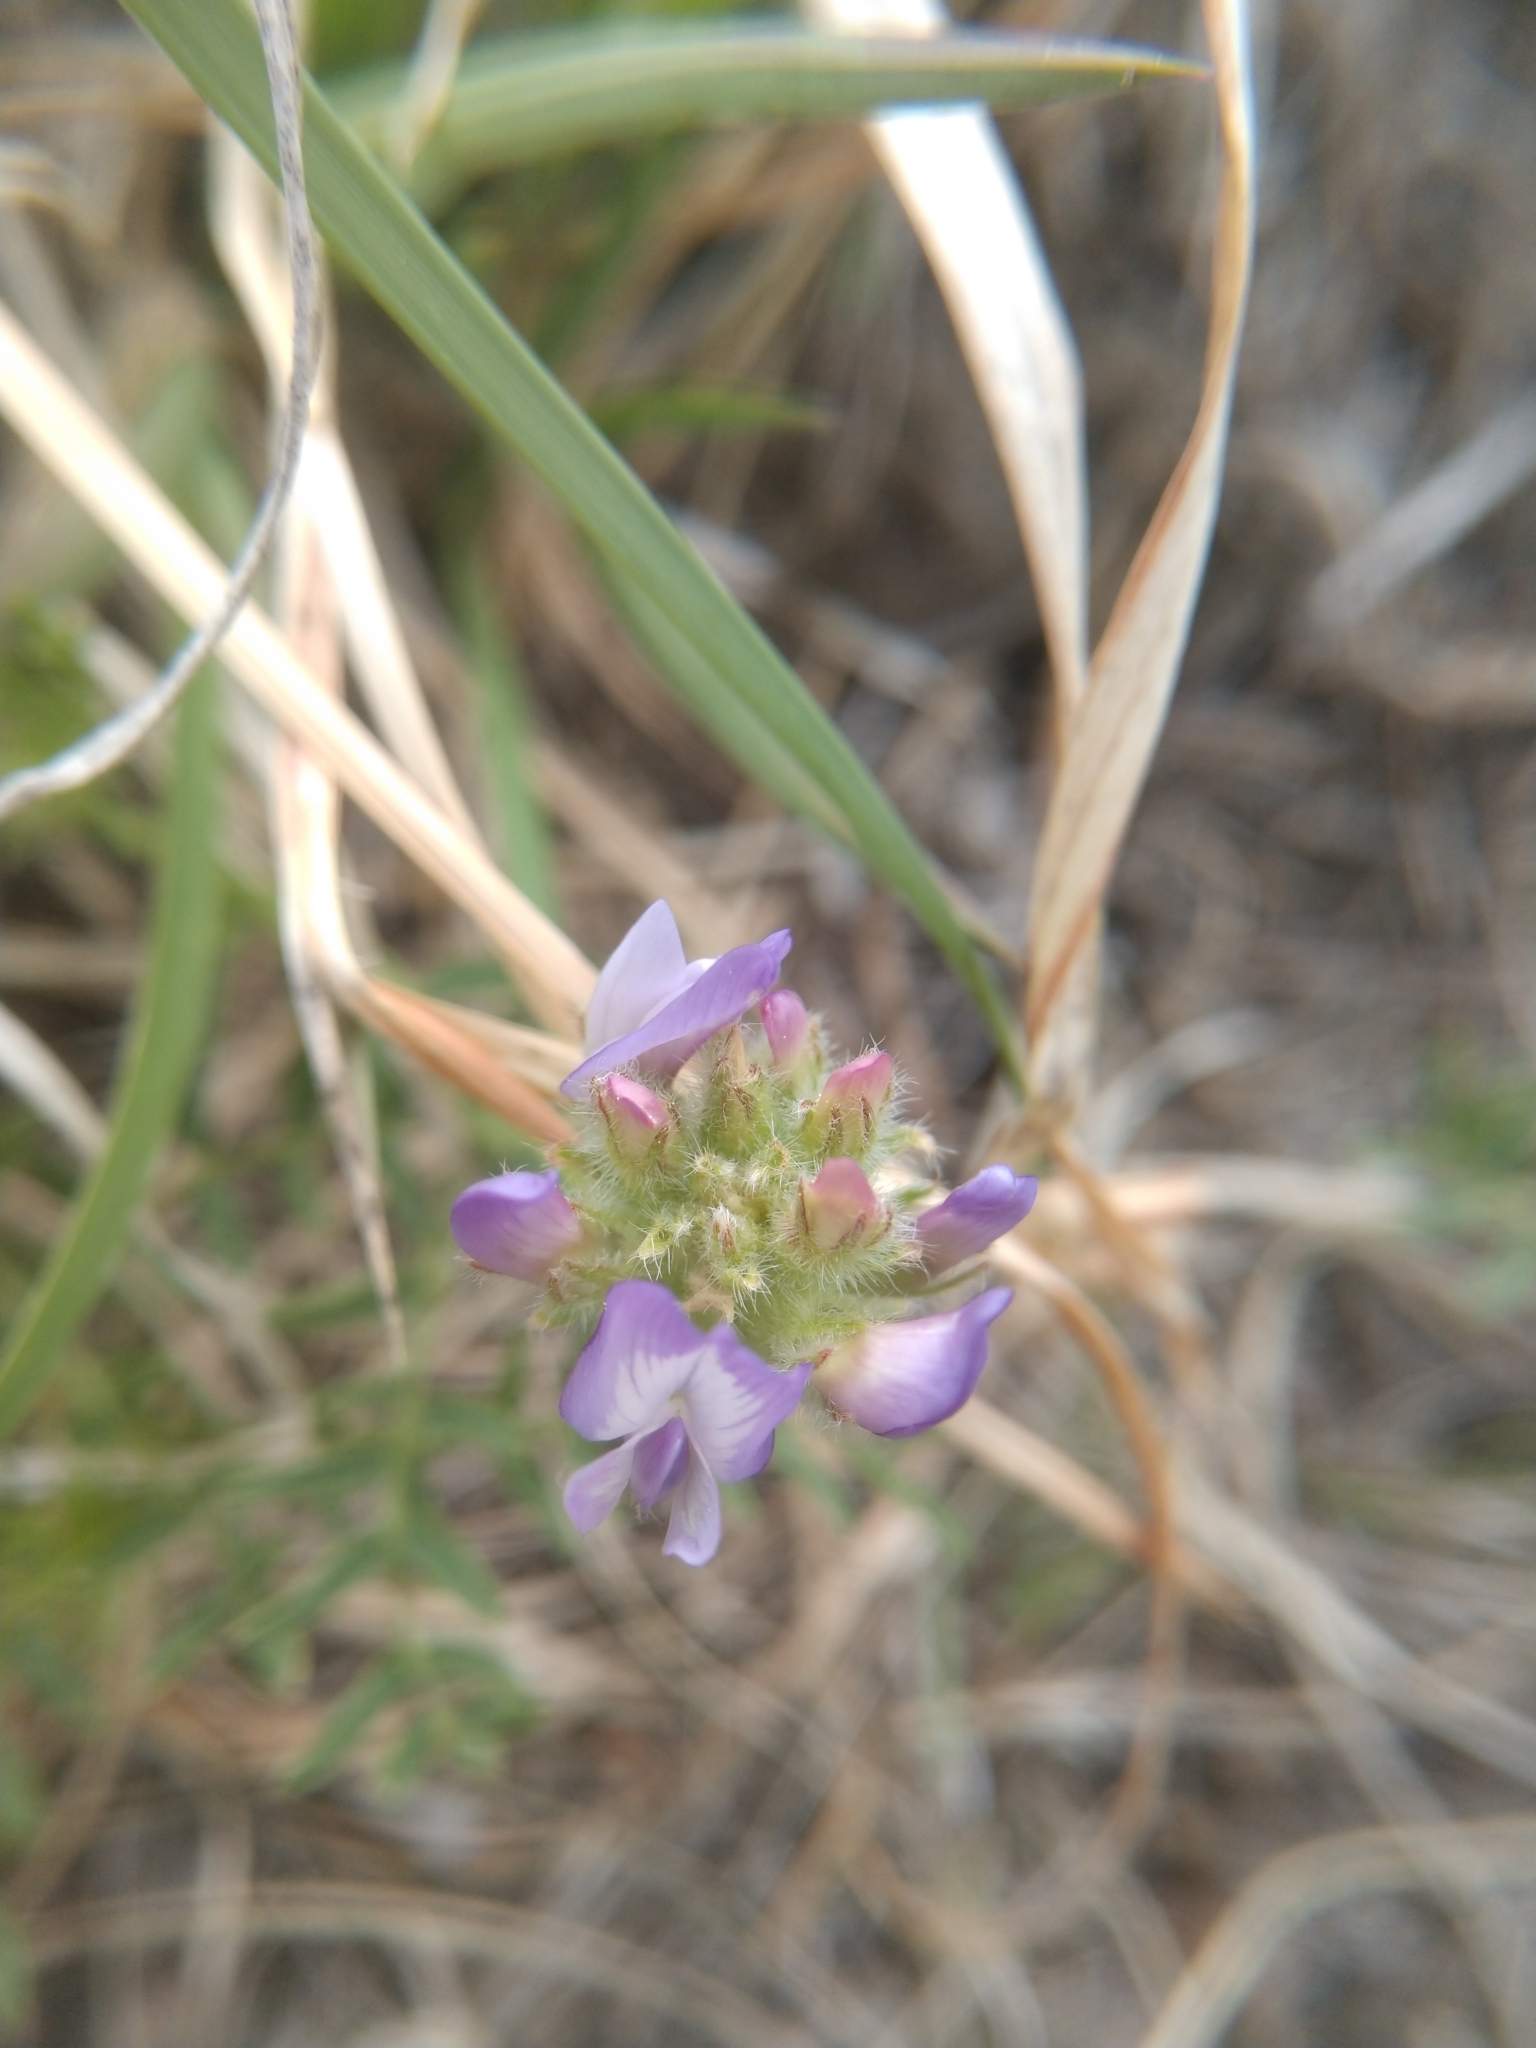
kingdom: Plantae
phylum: Tracheophyta
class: Magnoliopsida
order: Fabales
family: Fabaceae
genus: Astragalus
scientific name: Astragalus agrestis
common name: Field milk-vetch
